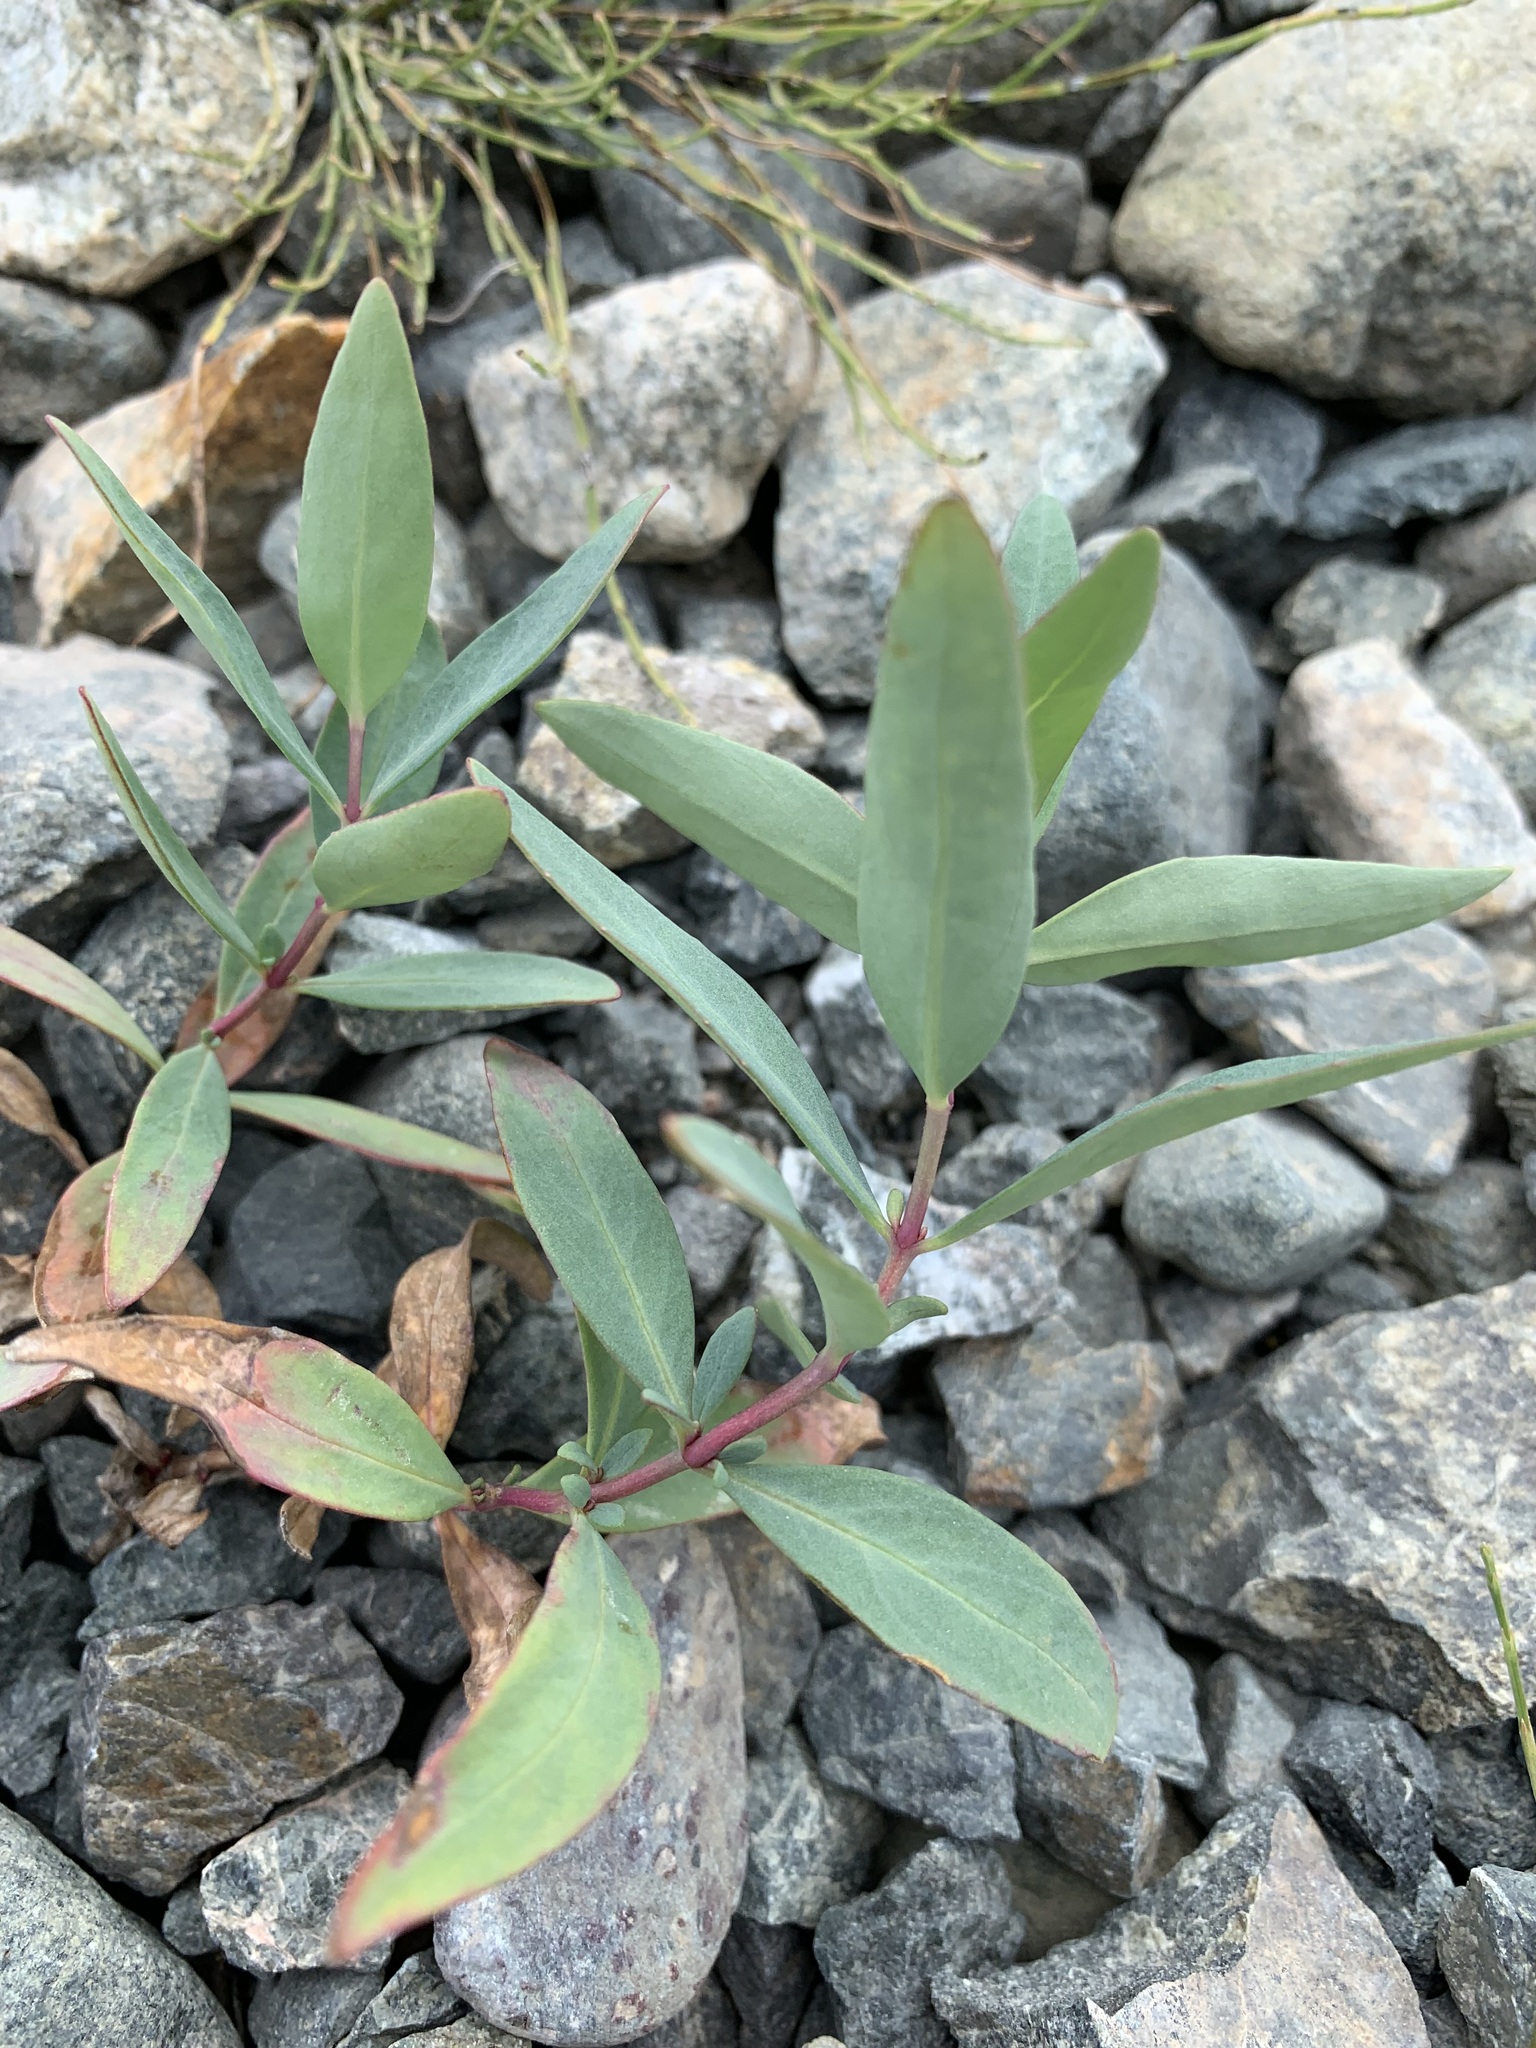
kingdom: Plantae
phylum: Tracheophyta
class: Magnoliopsida
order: Myrtales
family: Onagraceae
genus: Chamaenerion
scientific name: Chamaenerion latifolium
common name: Dwarf fireweed
